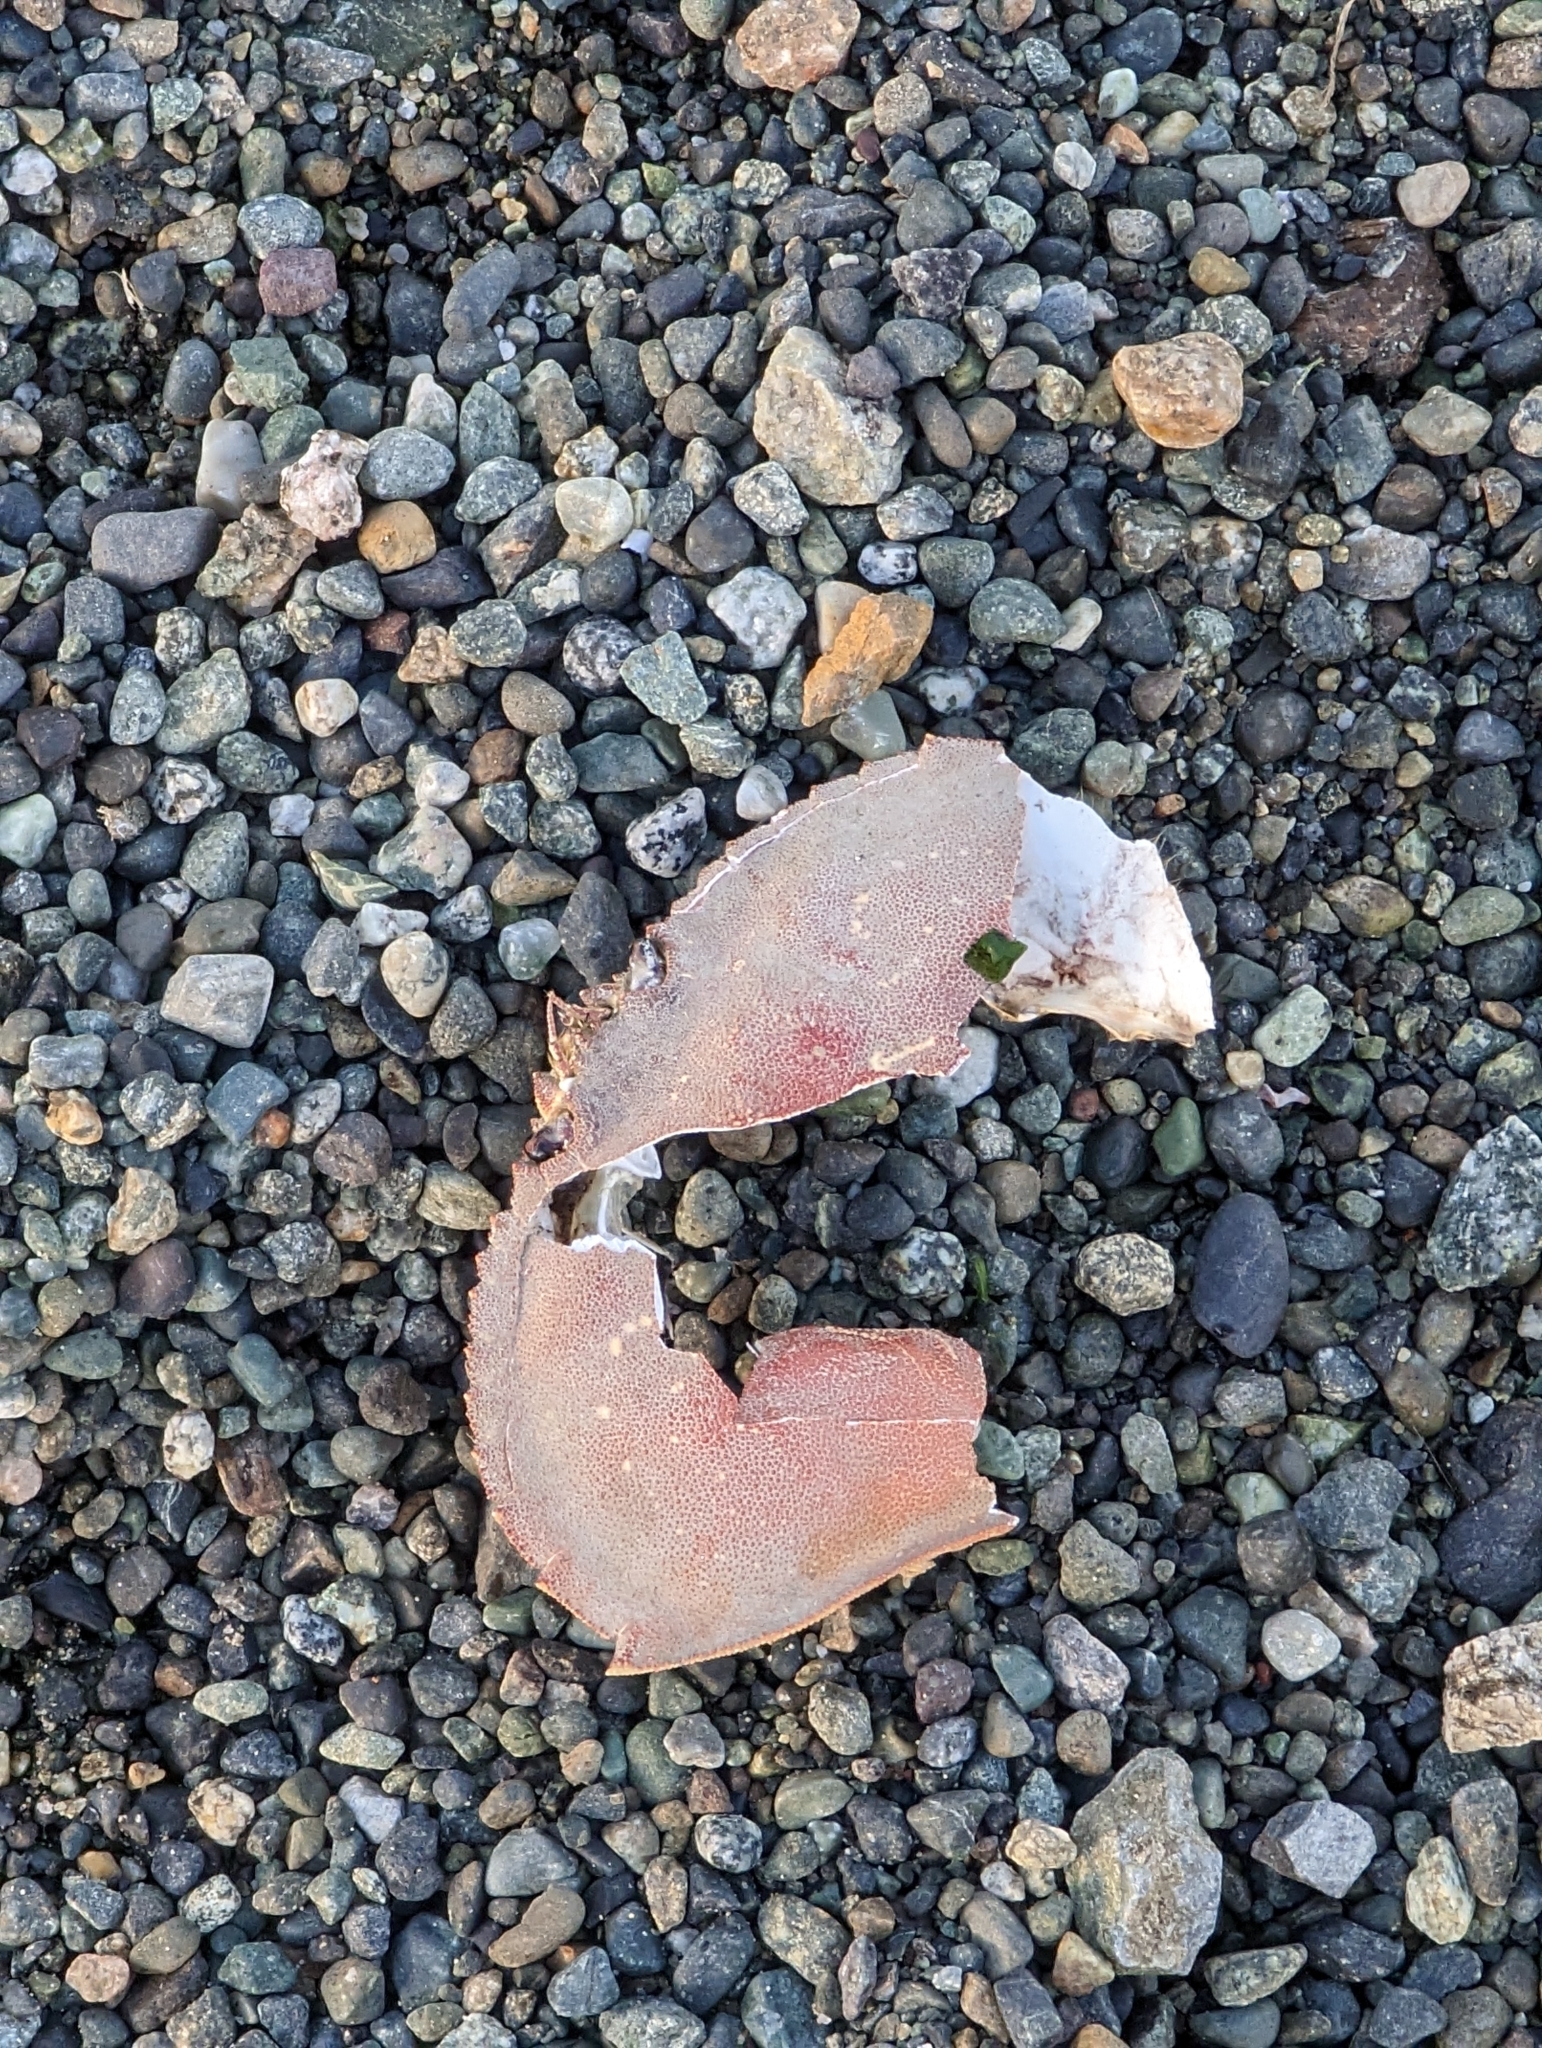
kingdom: Animalia
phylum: Arthropoda
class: Malacostraca
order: Decapoda
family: Cancridae
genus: Metacarcinus
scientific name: Metacarcinus magister
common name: Californian crab
